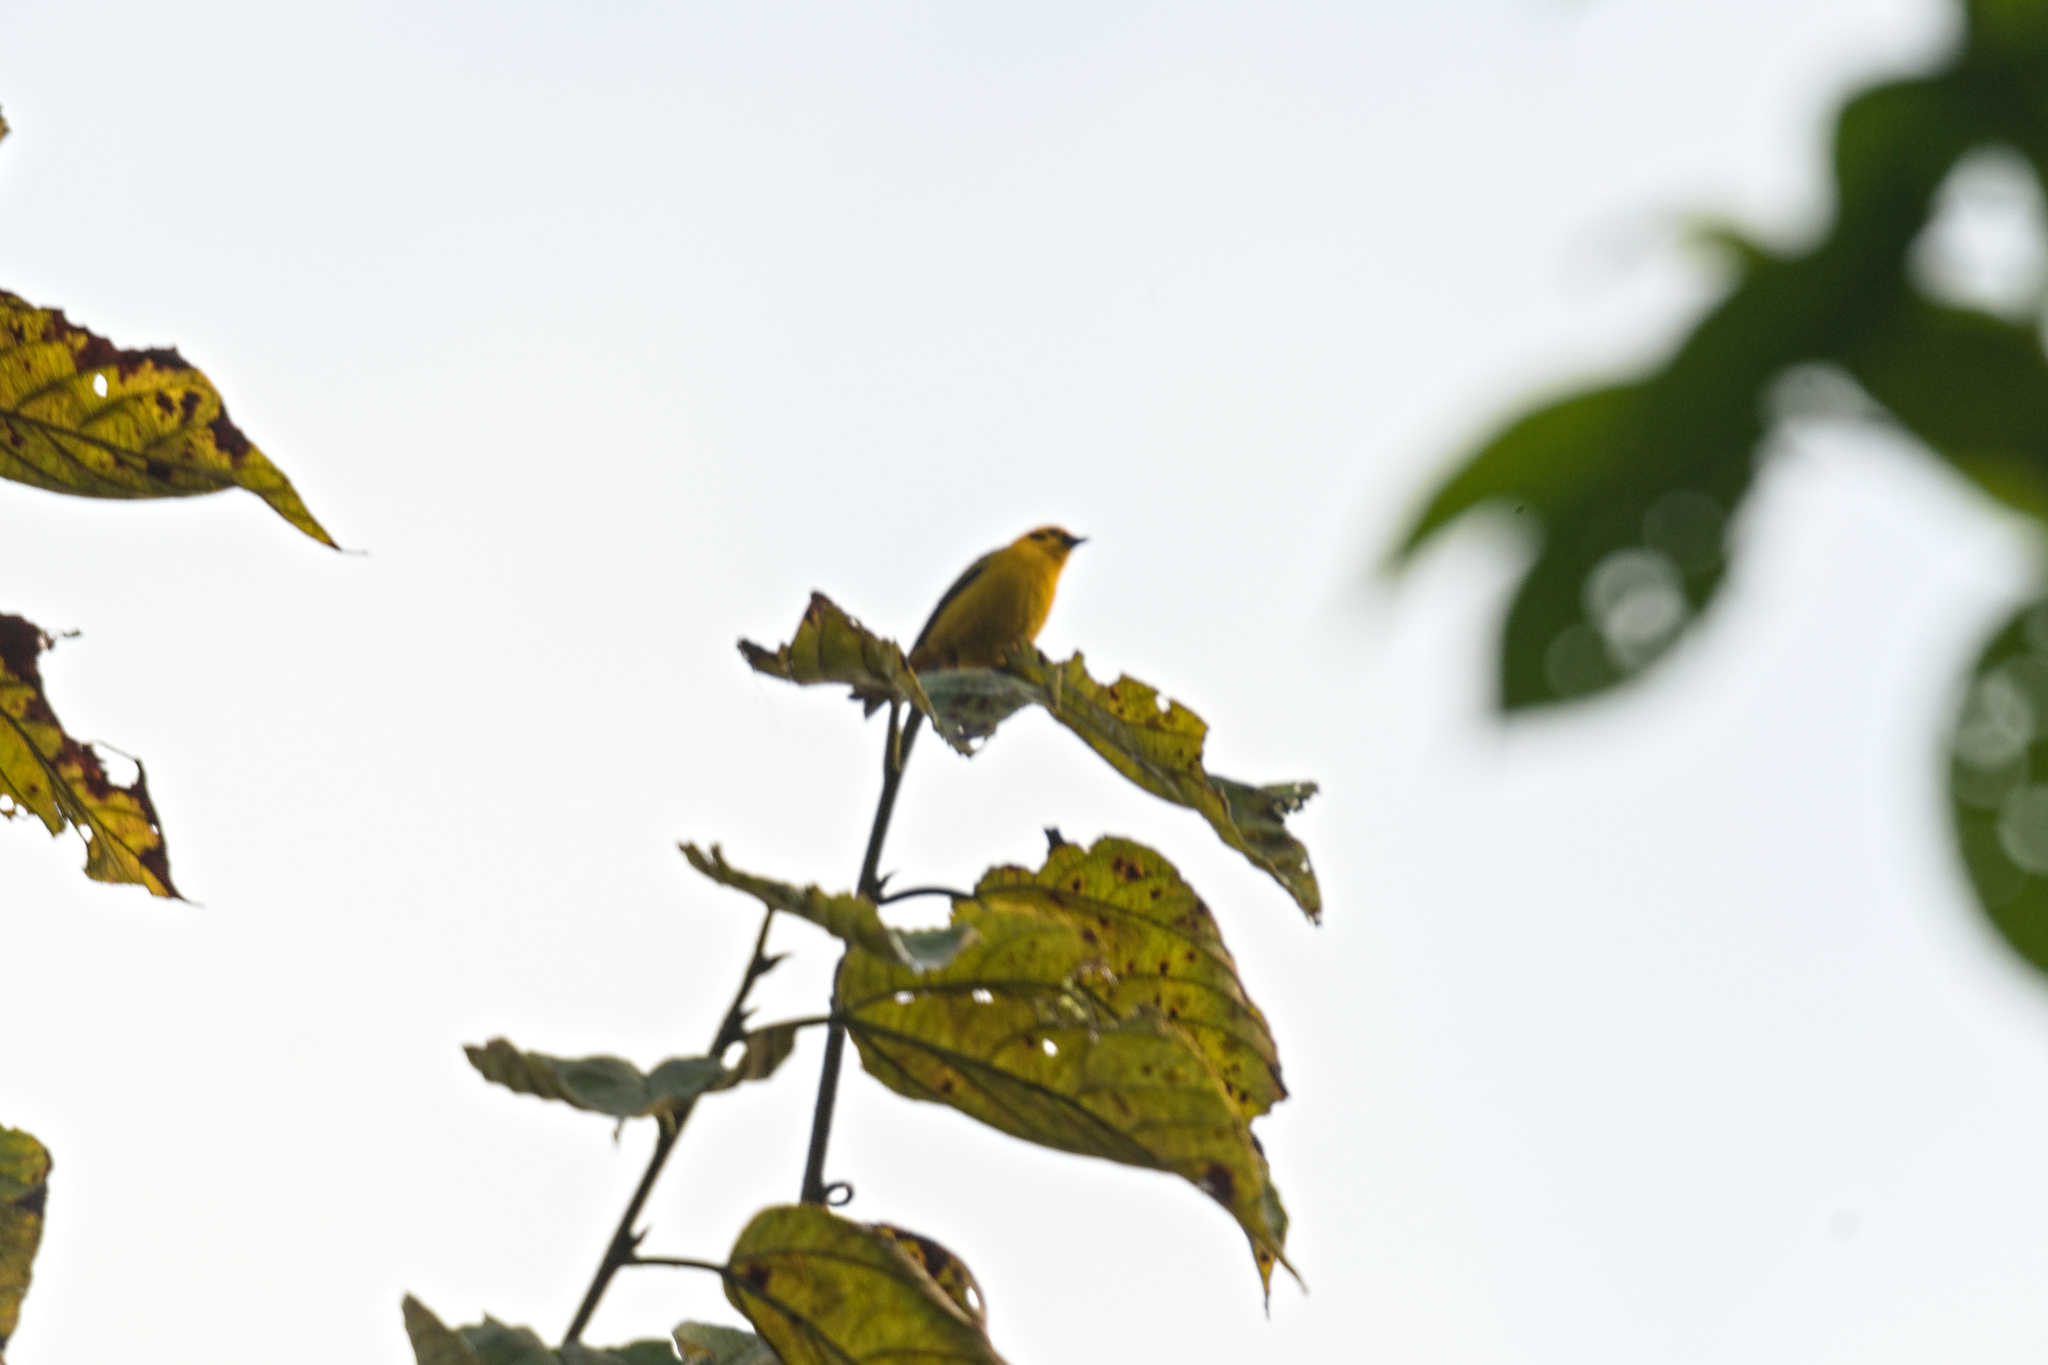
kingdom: Animalia
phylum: Chordata
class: Aves
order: Passeriformes
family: Thraupidae
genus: Tangara
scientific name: Tangara arthus
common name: Golden tanager
